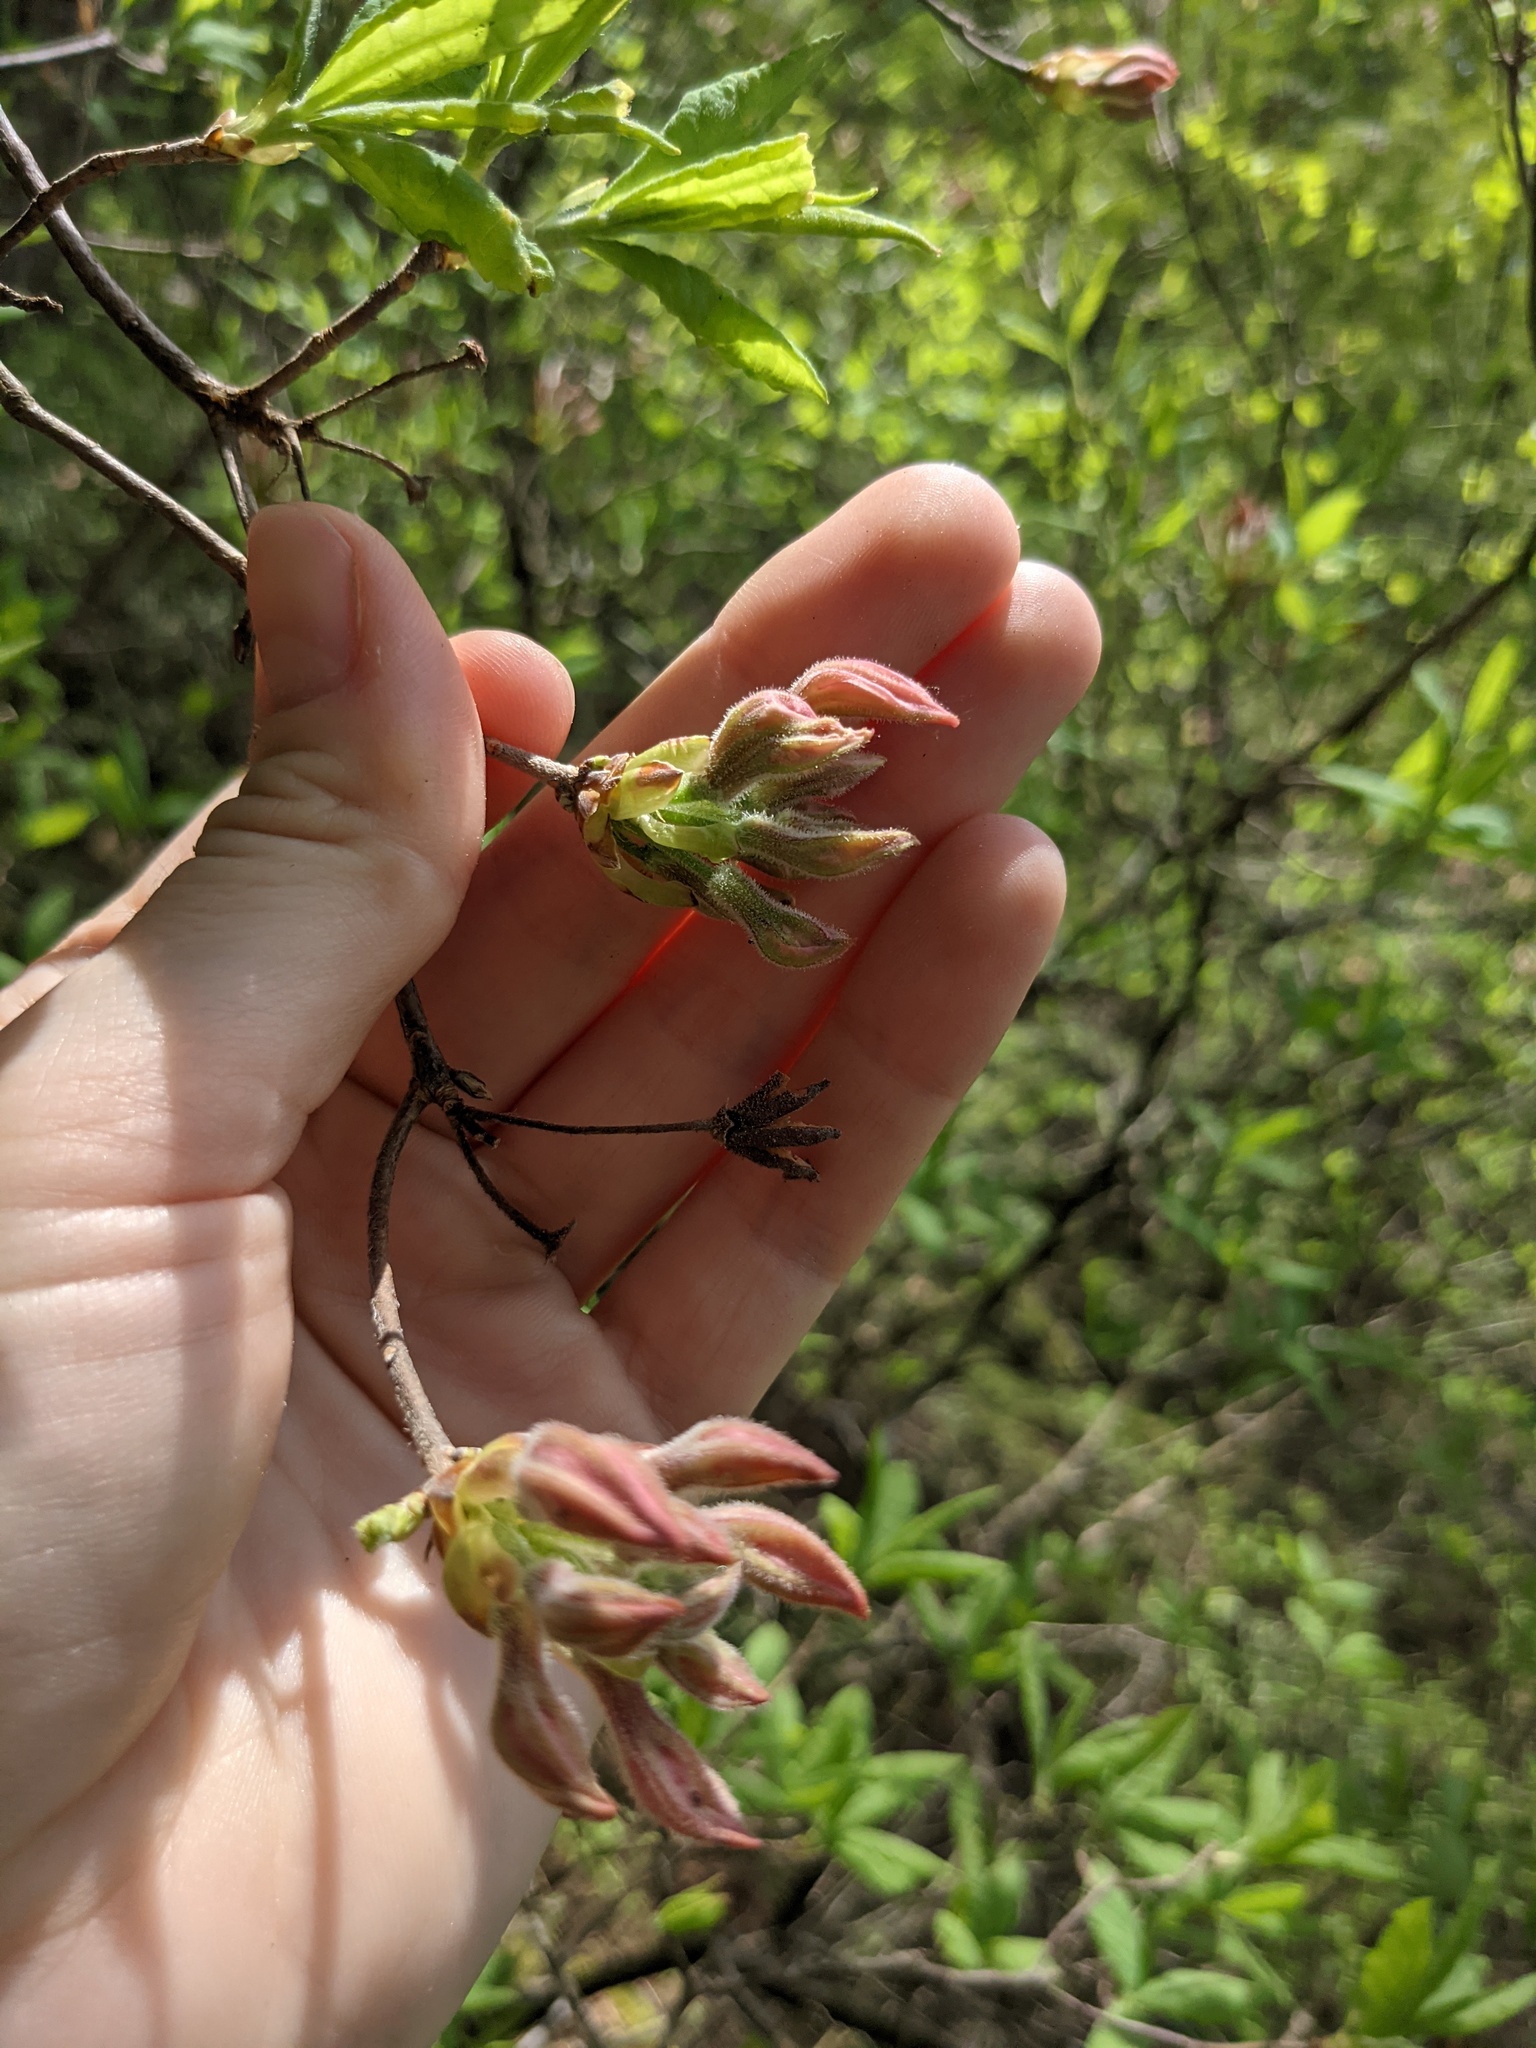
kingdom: Plantae
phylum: Tracheophyta
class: Magnoliopsida
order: Ericales
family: Ericaceae
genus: Rhododendron
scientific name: Rhododendron roseum
